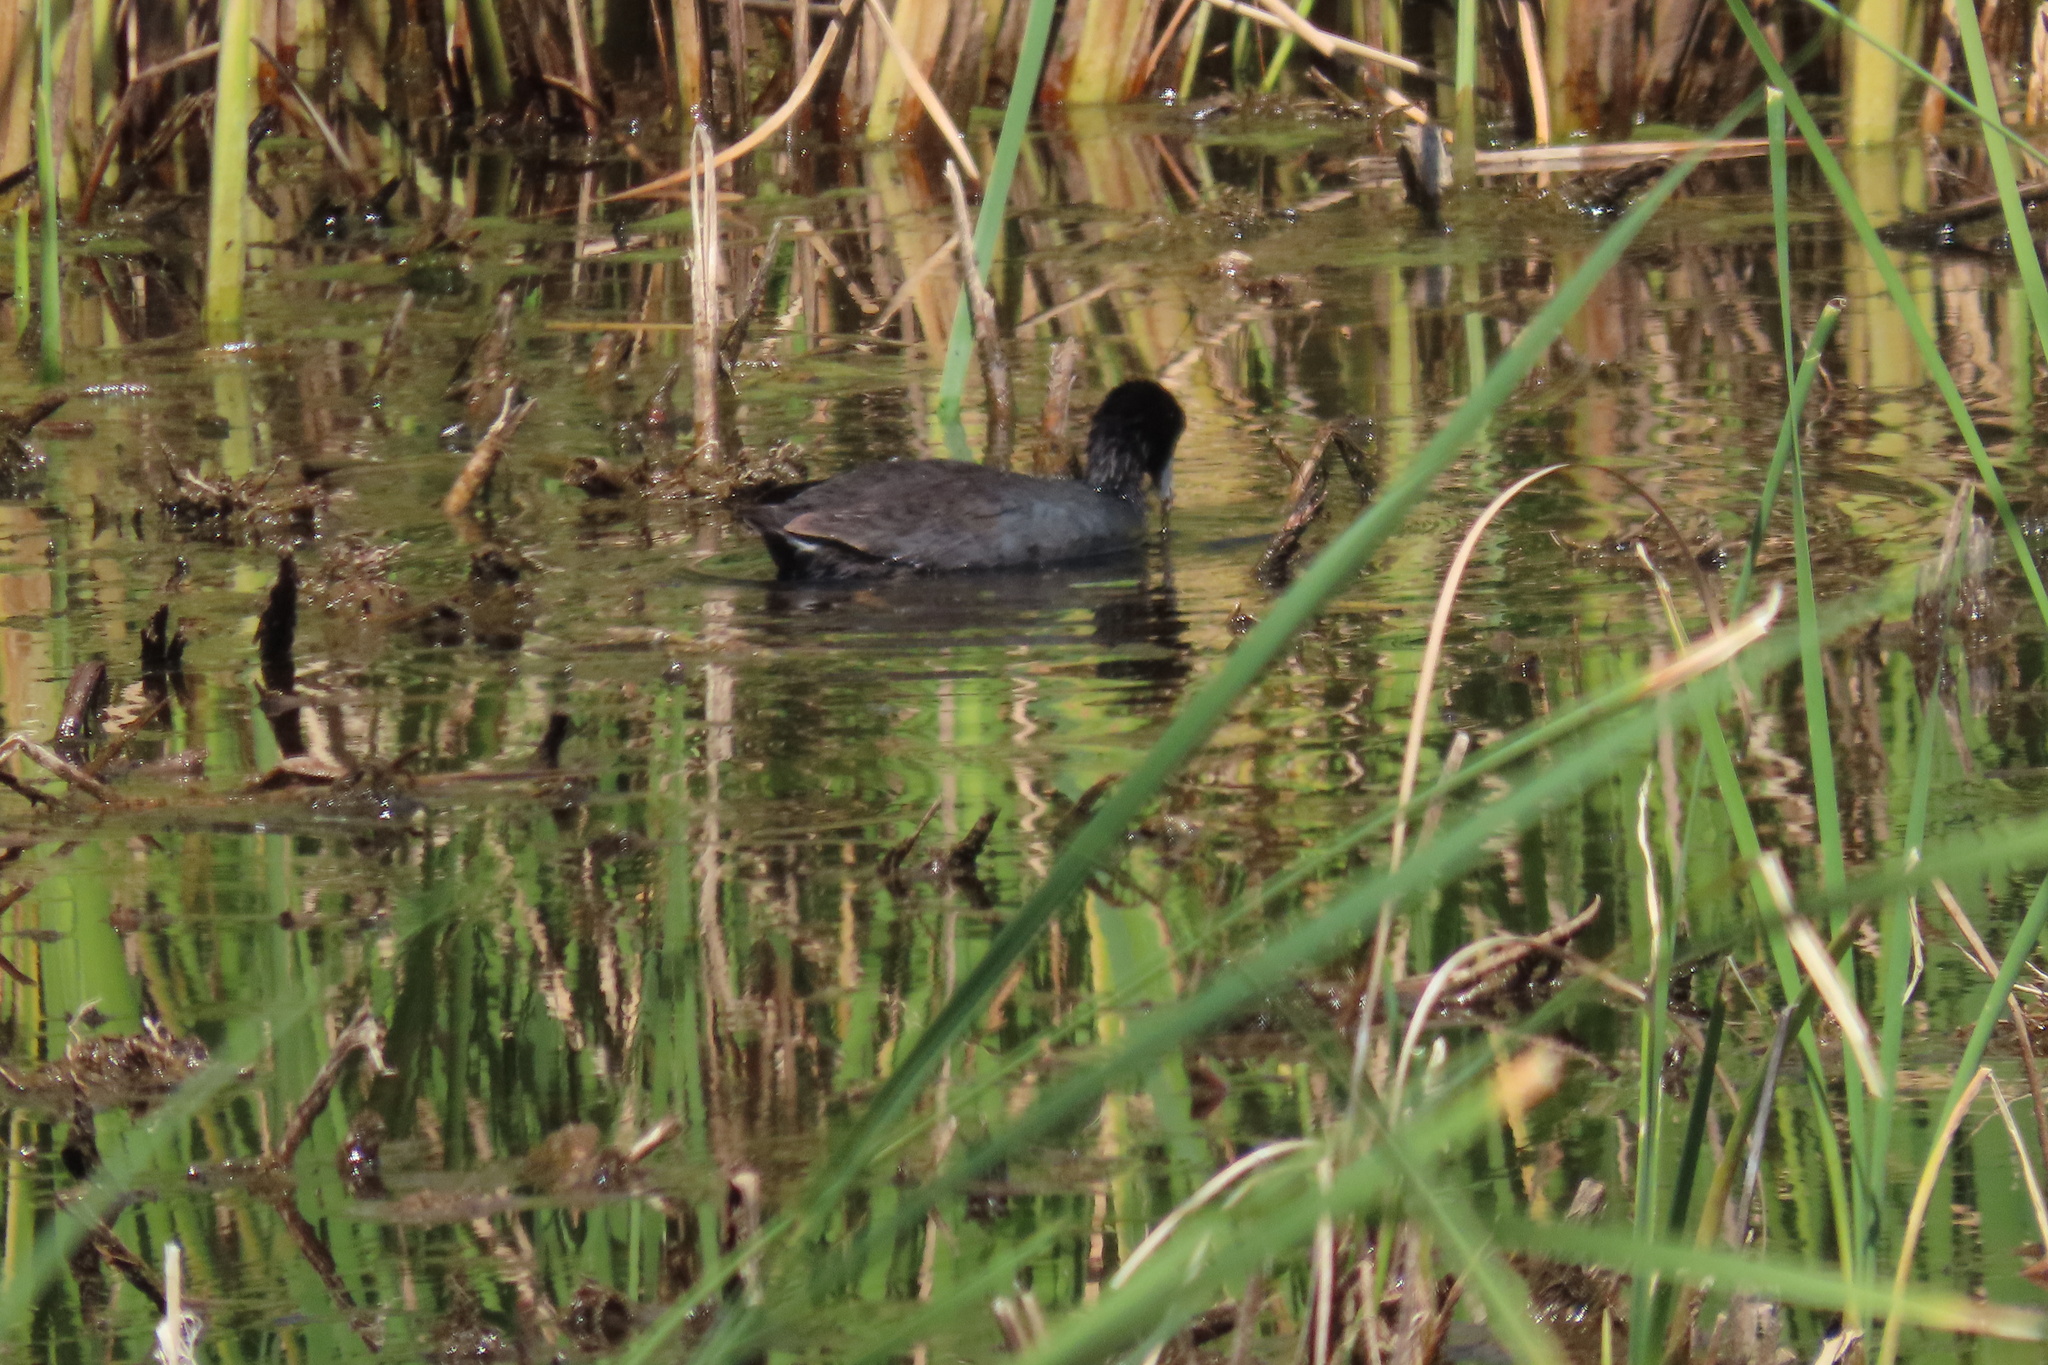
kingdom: Animalia
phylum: Chordata
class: Aves
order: Gruiformes
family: Rallidae
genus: Fulica
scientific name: Fulica americana
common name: American coot
